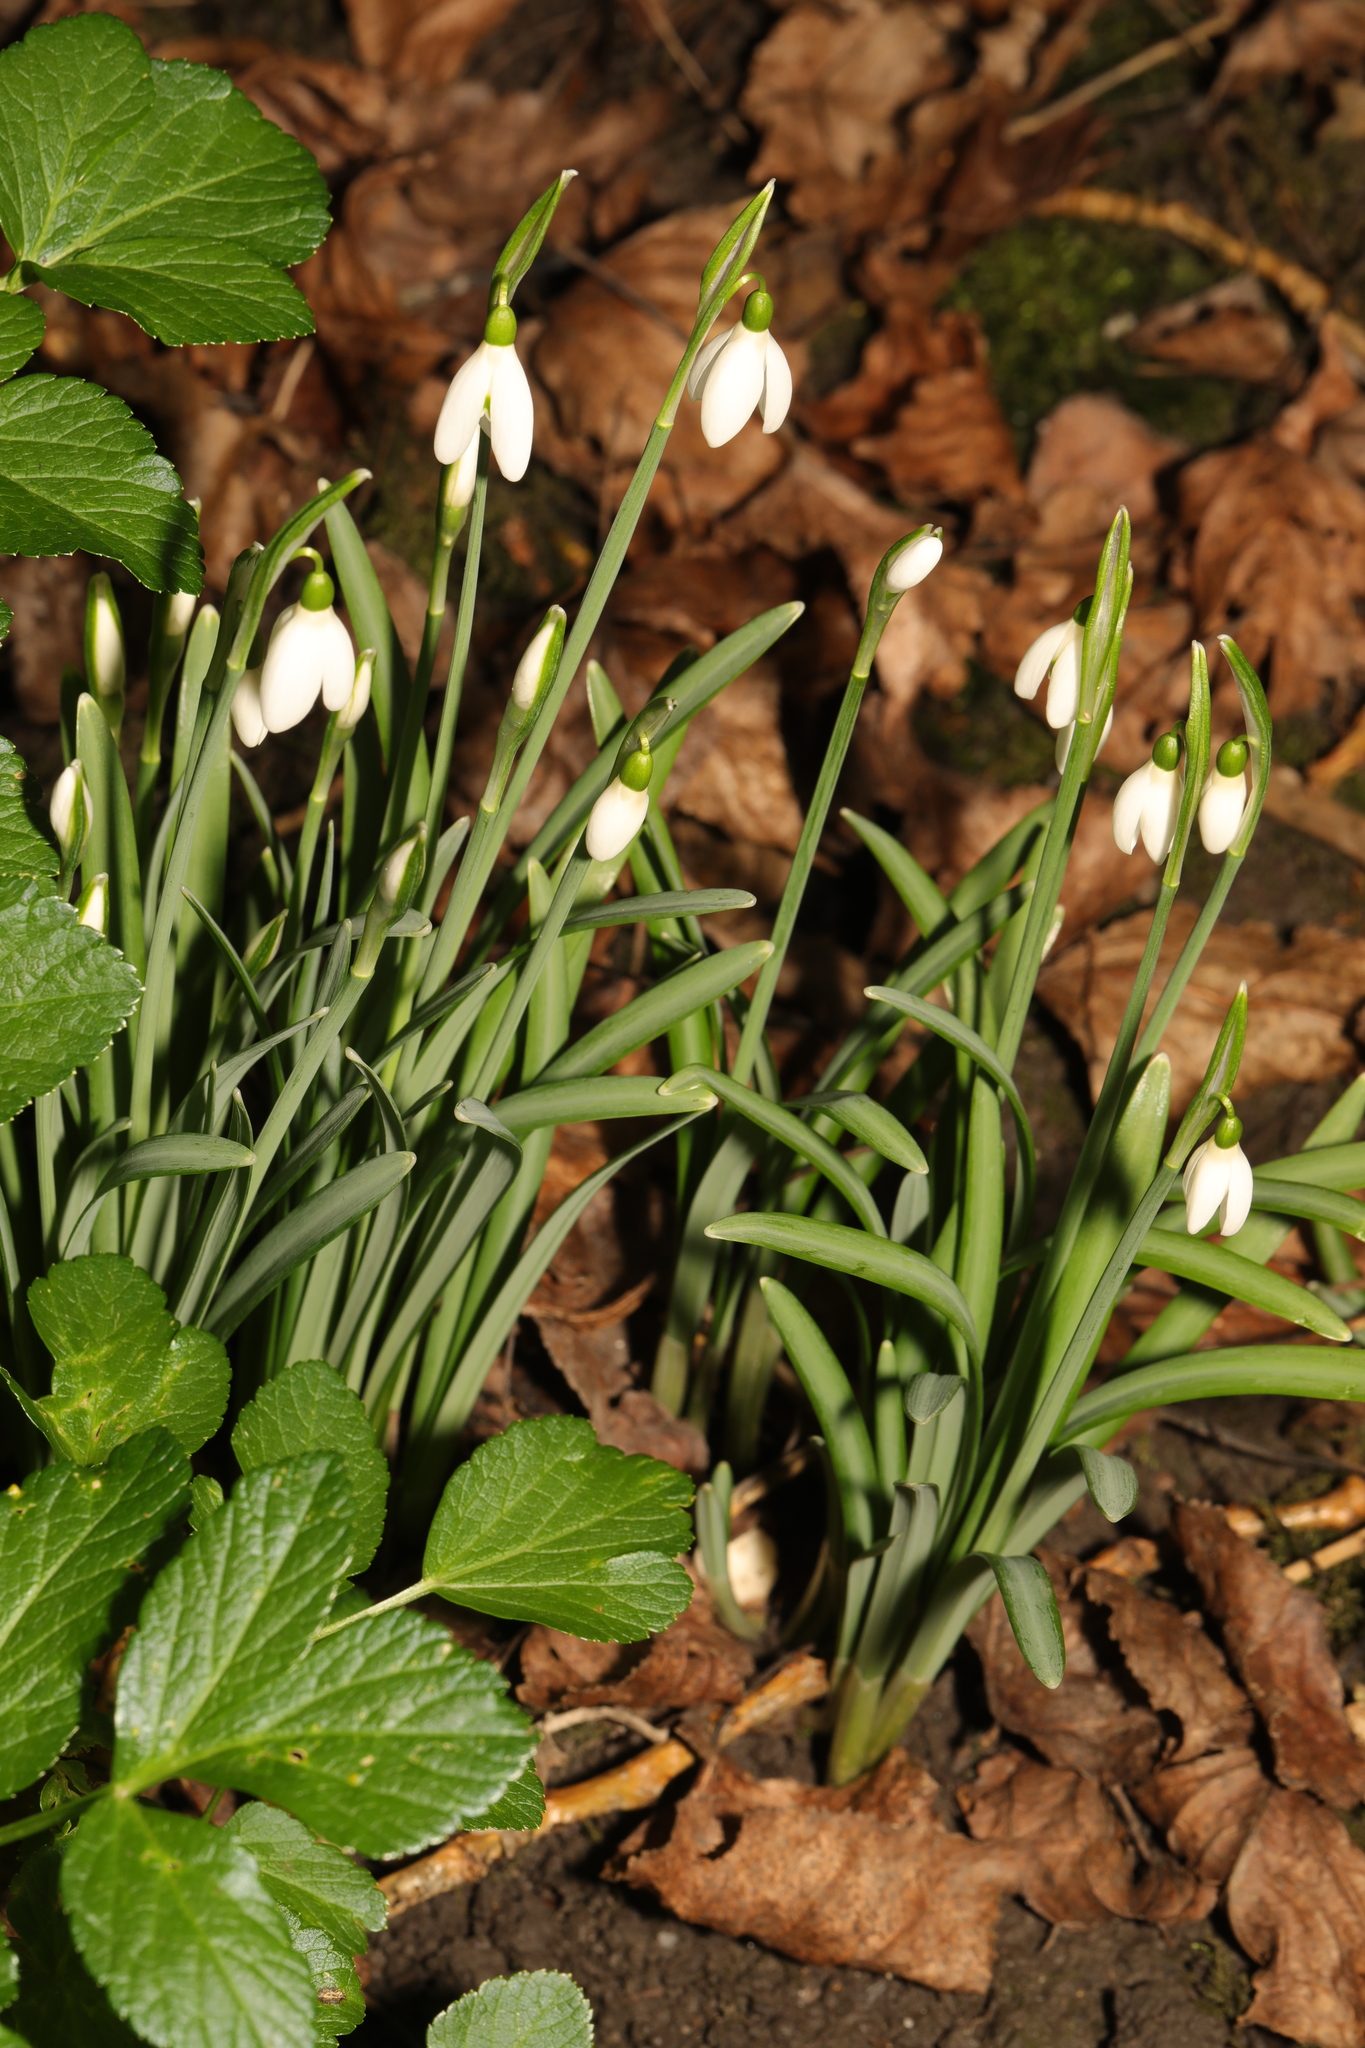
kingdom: Plantae
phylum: Tracheophyta
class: Liliopsida
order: Asparagales
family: Amaryllidaceae
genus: Galanthus
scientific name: Galanthus nivalis
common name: Snowdrop
